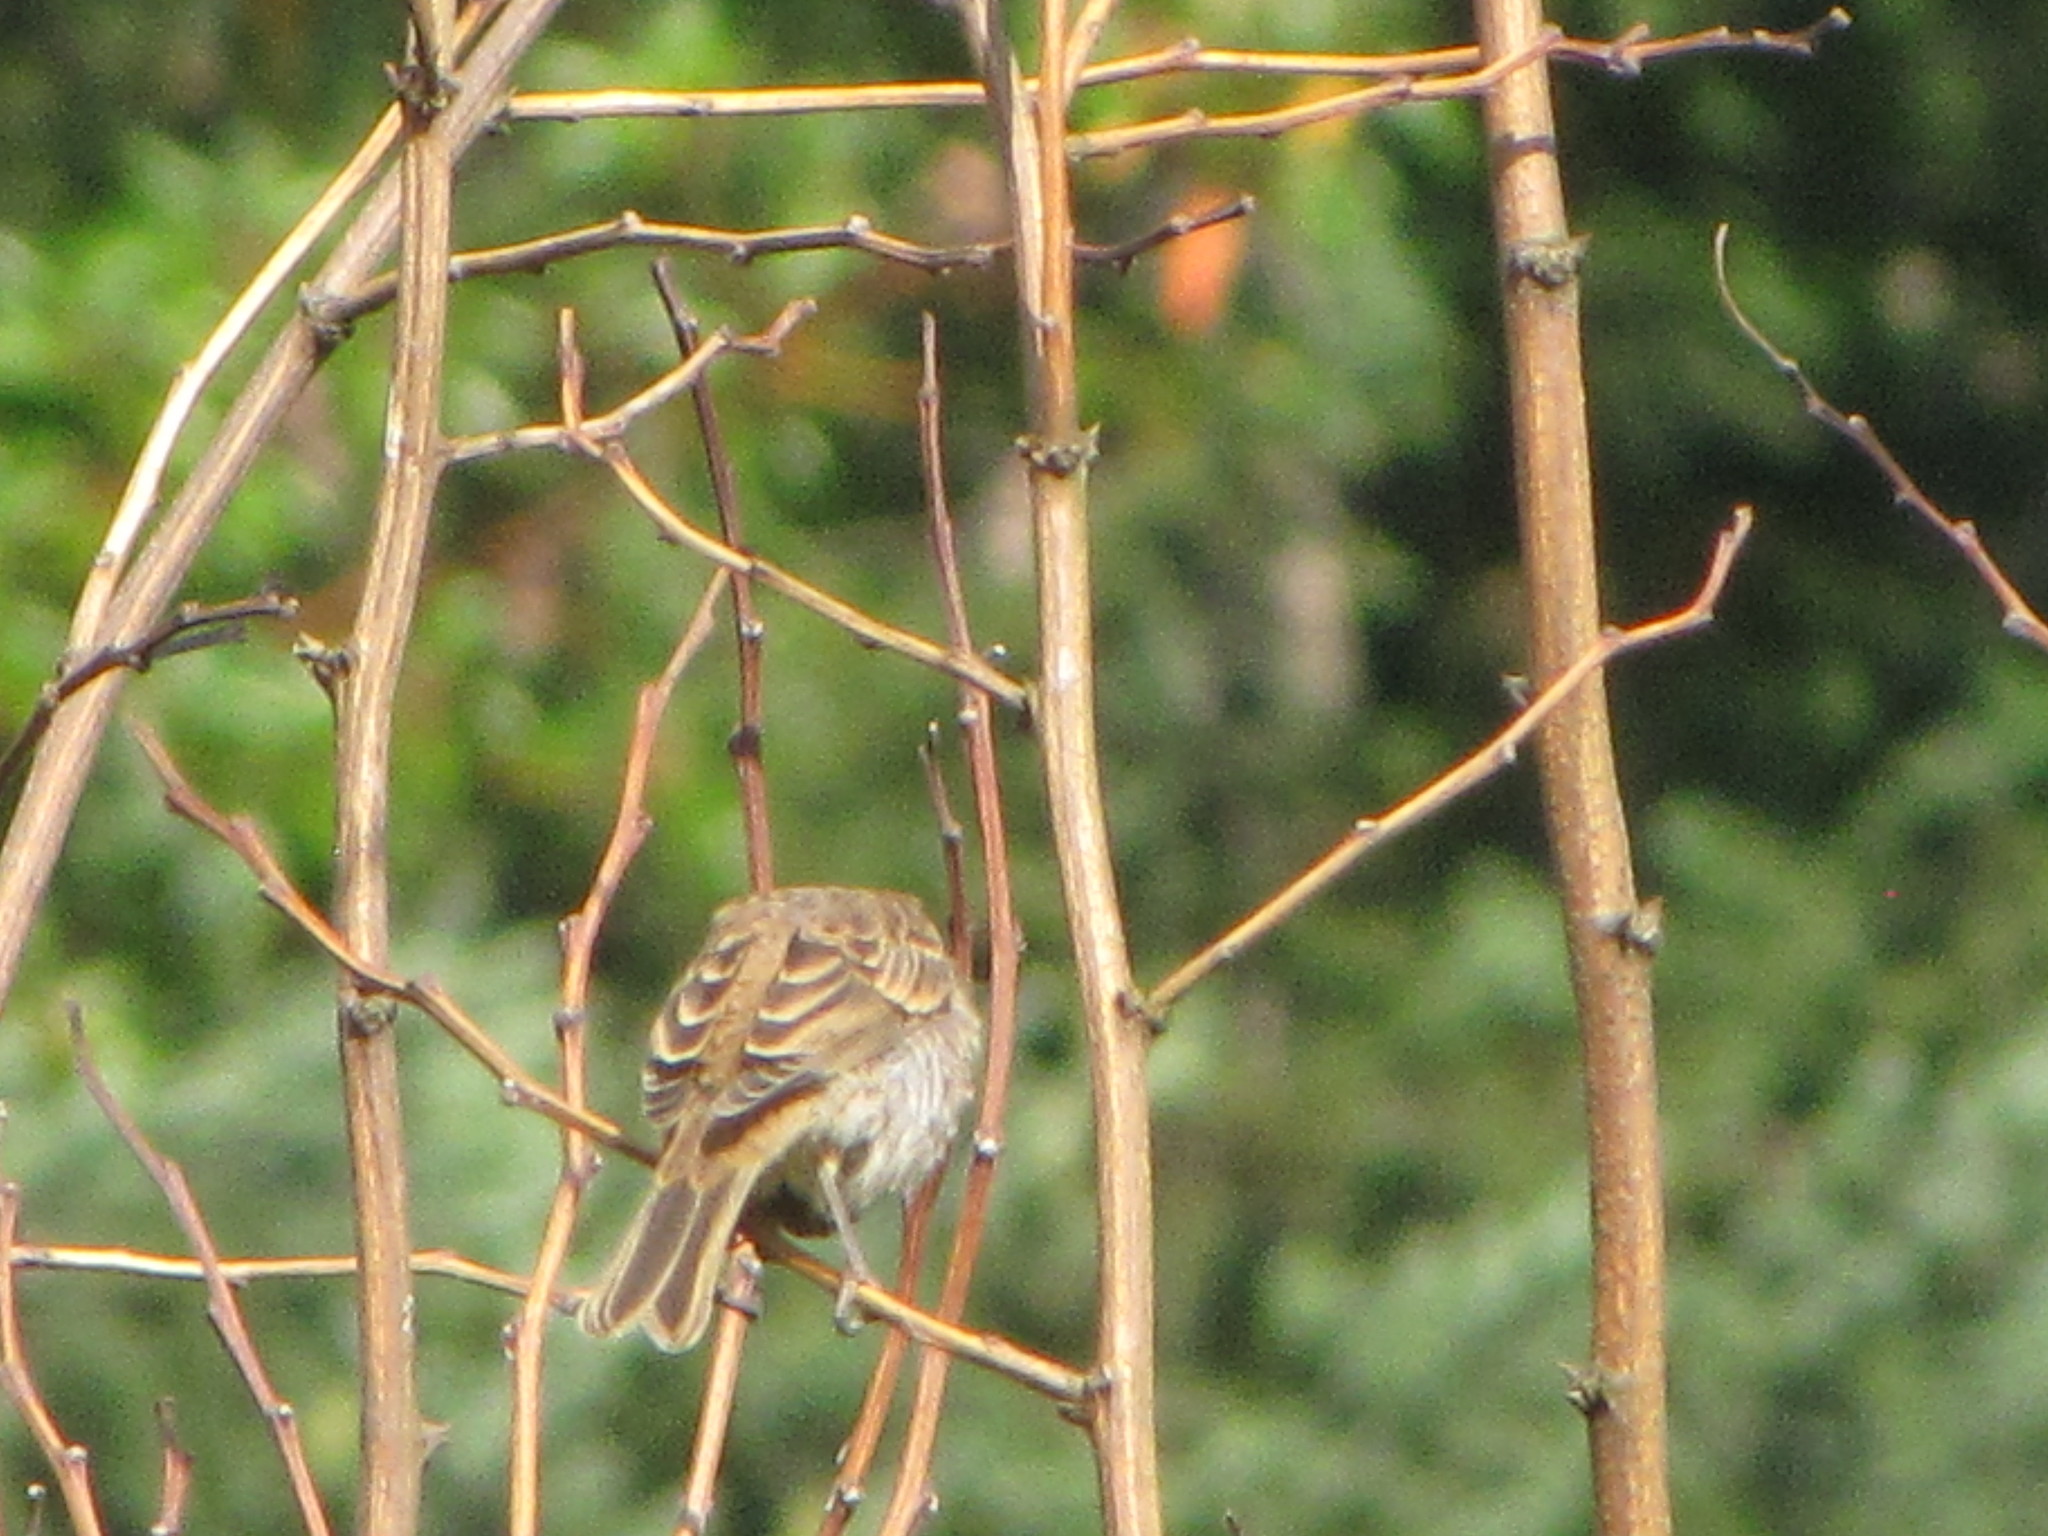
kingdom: Animalia
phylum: Chordata
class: Aves
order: Passeriformes
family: Fringillidae
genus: Haemorhous
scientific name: Haemorhous mexicanus
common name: House finch
